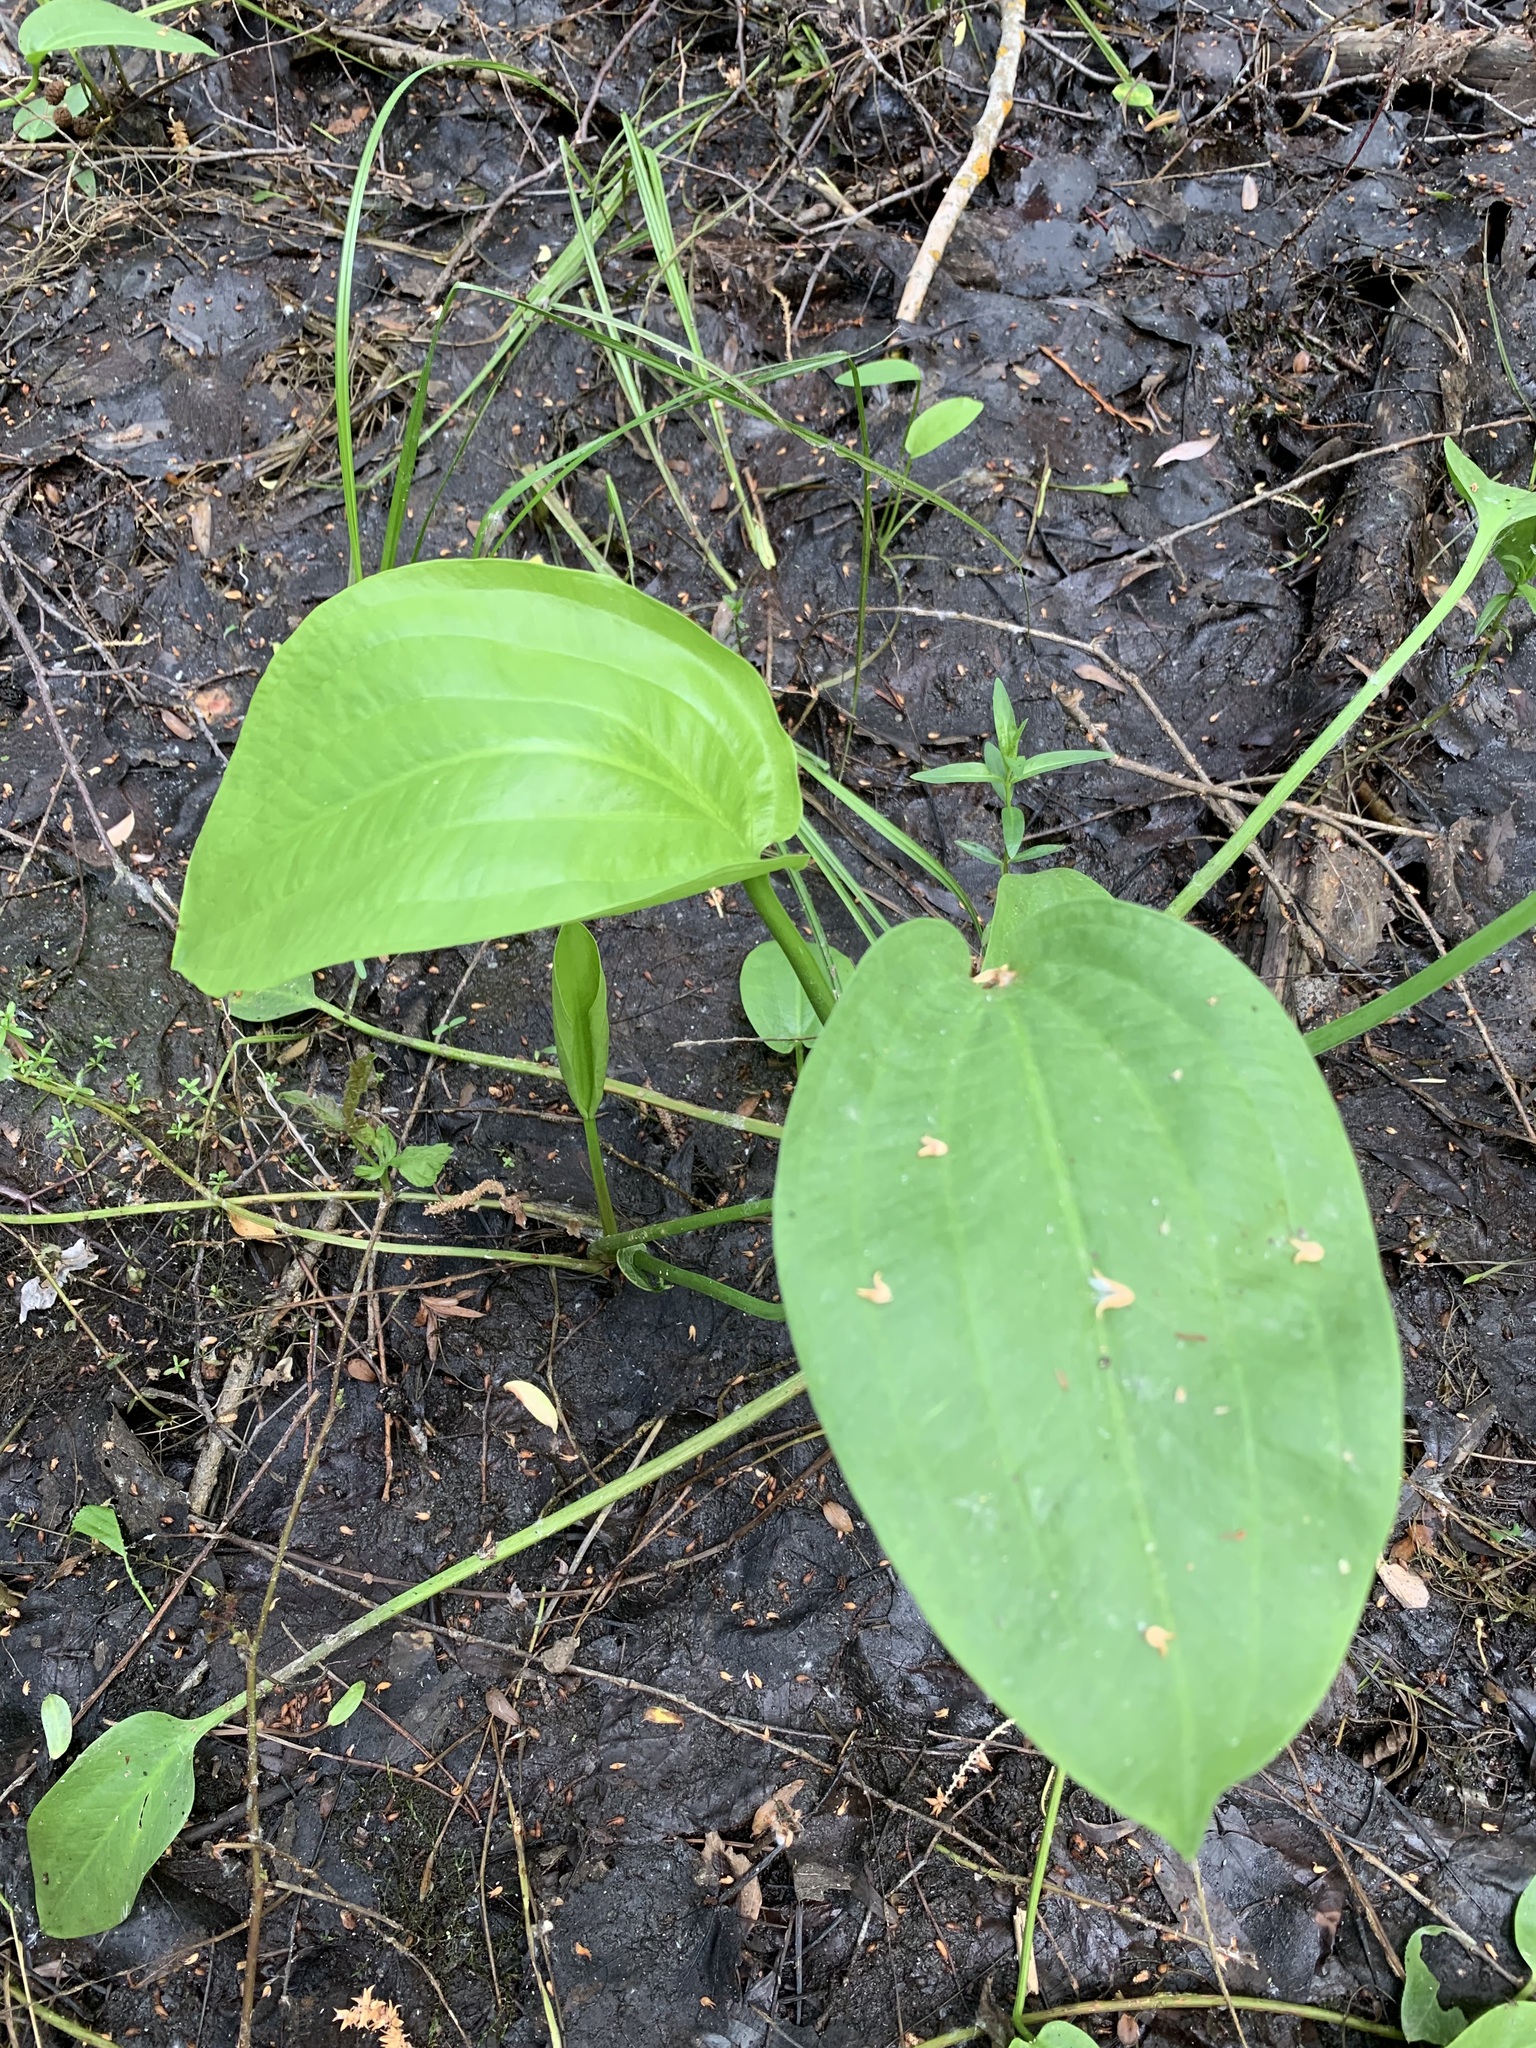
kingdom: Plantae
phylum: Tracheophyta
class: Liliopsida
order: Alismatales
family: Alismataceae
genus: Alisma
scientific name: Alisma plantago-aquatica
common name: Water-plantain
